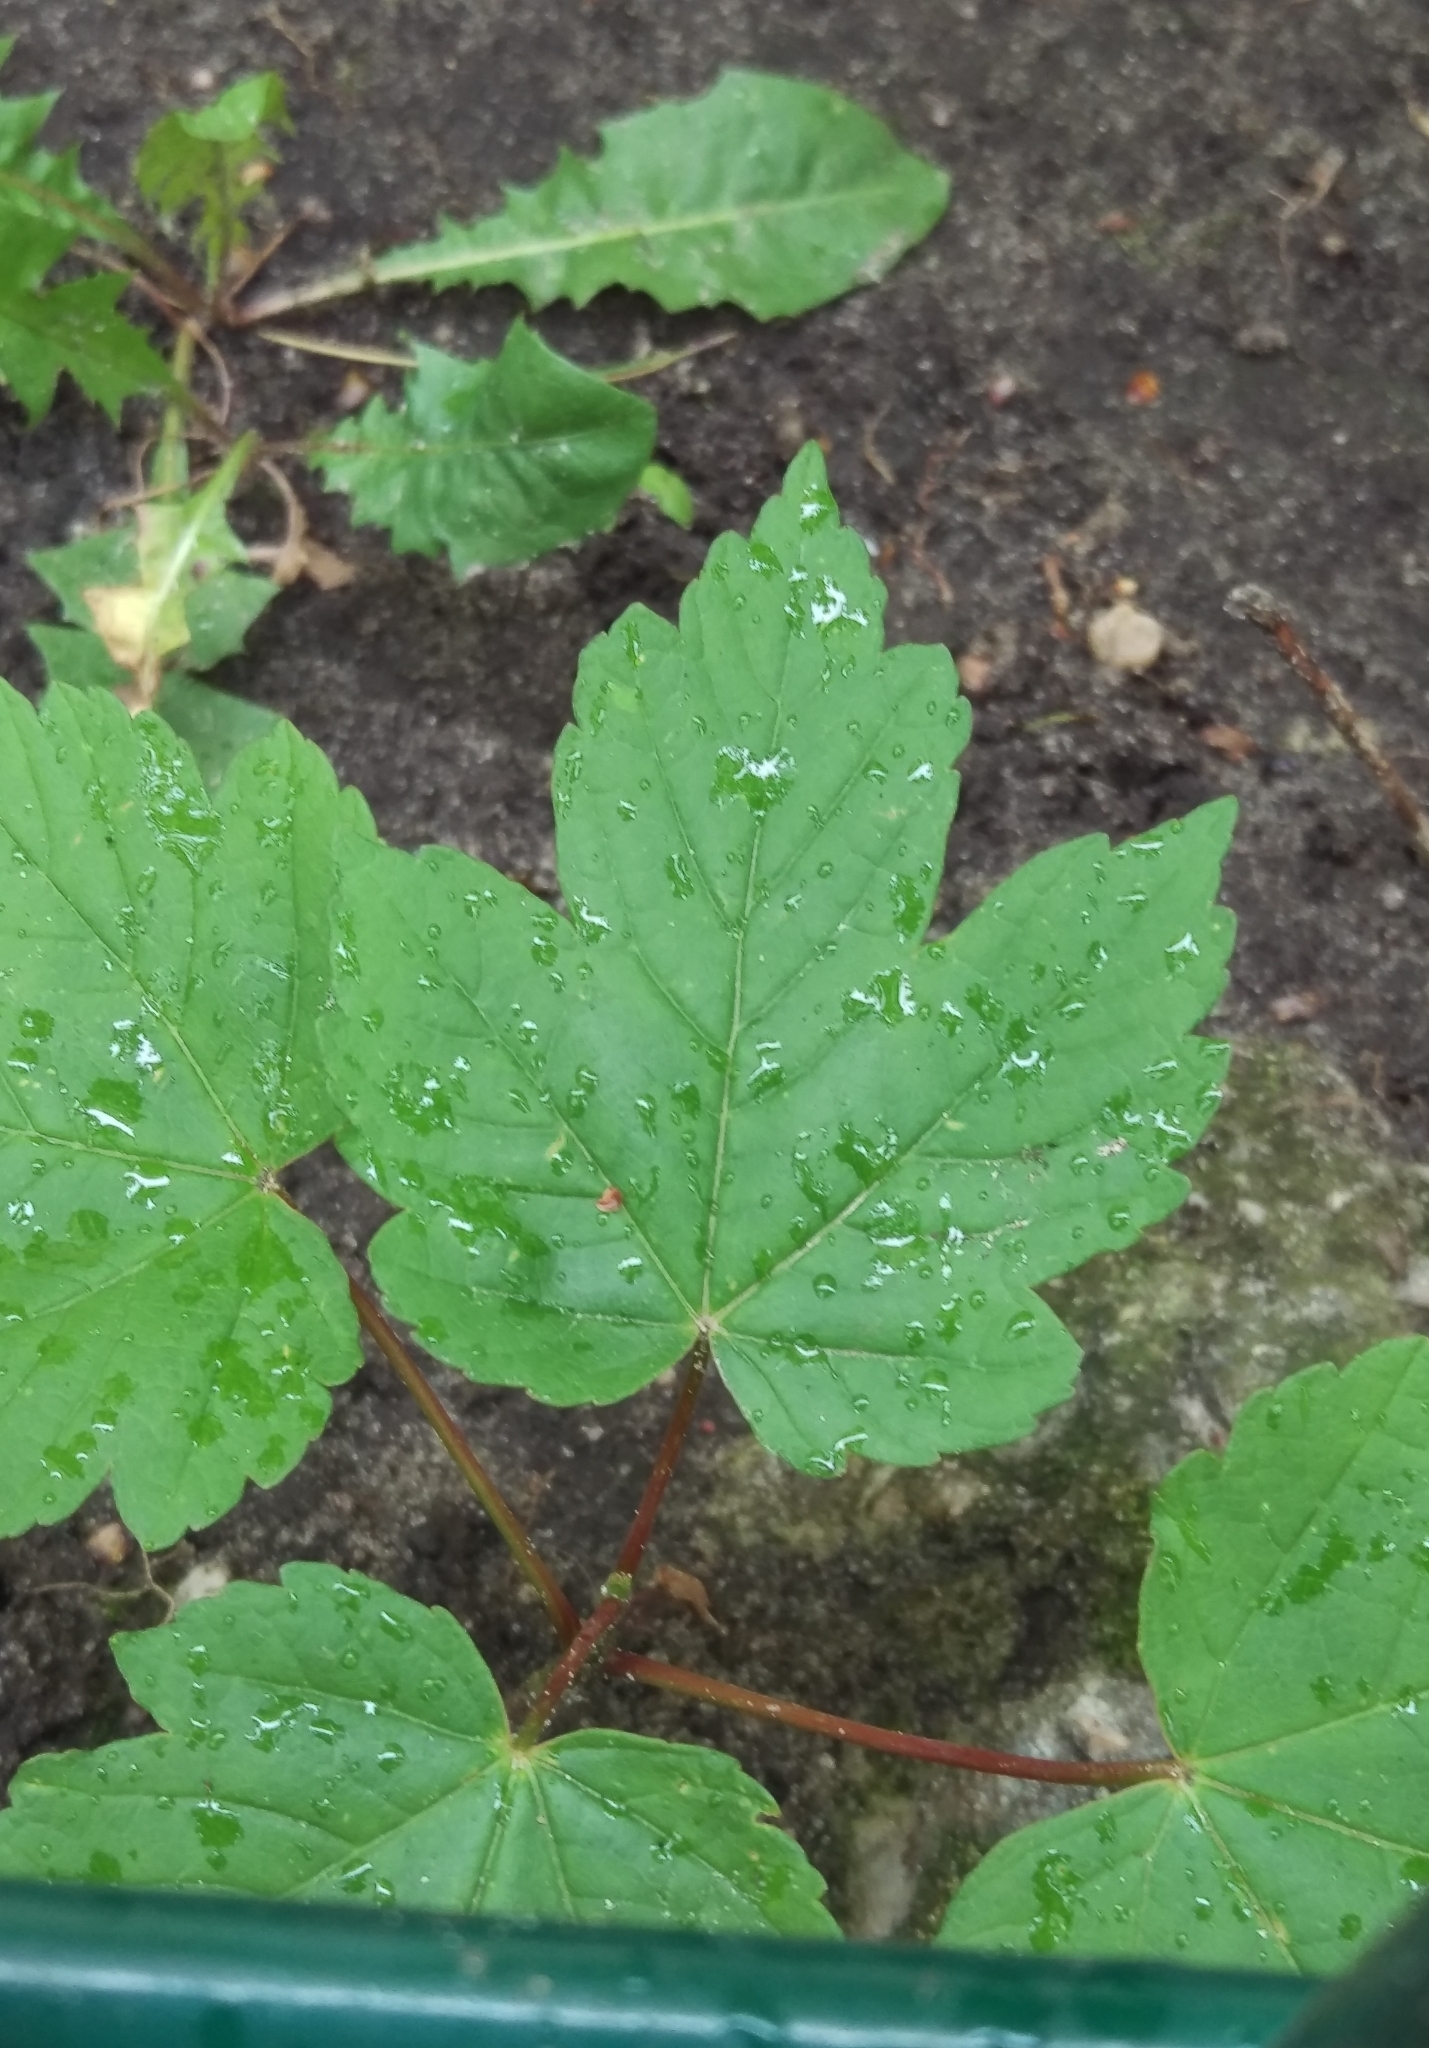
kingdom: Plantae
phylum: Tracheophyta
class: Magnoliopsida
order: Sapindales
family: Sapindaceae
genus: Acer
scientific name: Acer pseudoplatanus
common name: Sycamore
